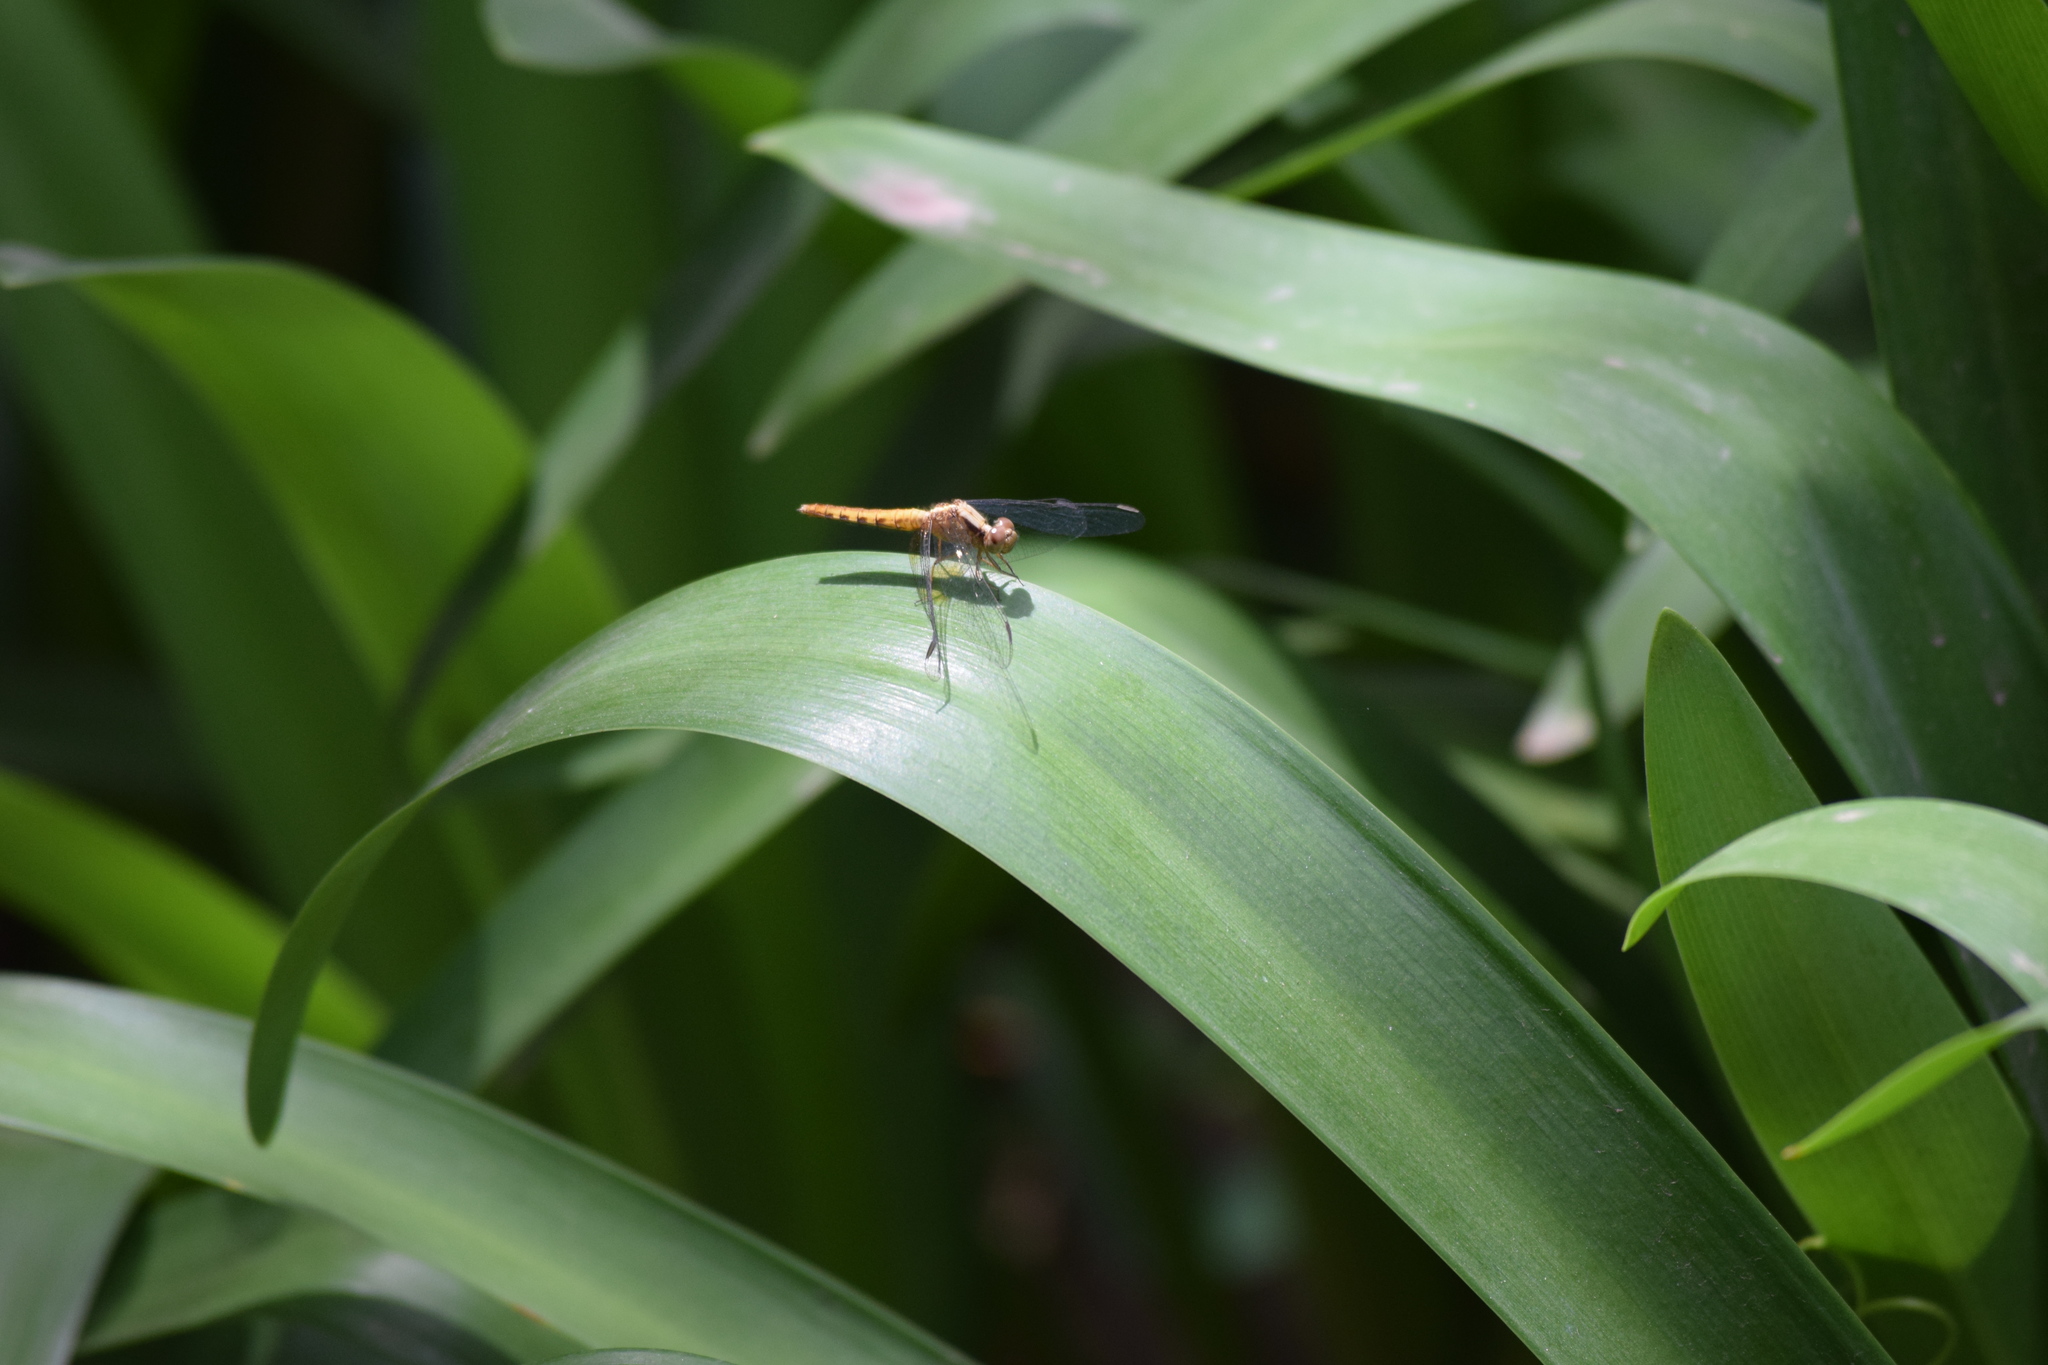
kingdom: Animalia
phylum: Arthropoda
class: Insecta
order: Odonata
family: Libellulidae
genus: Erythrodiplax
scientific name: Erythrodiplax melanorubra
